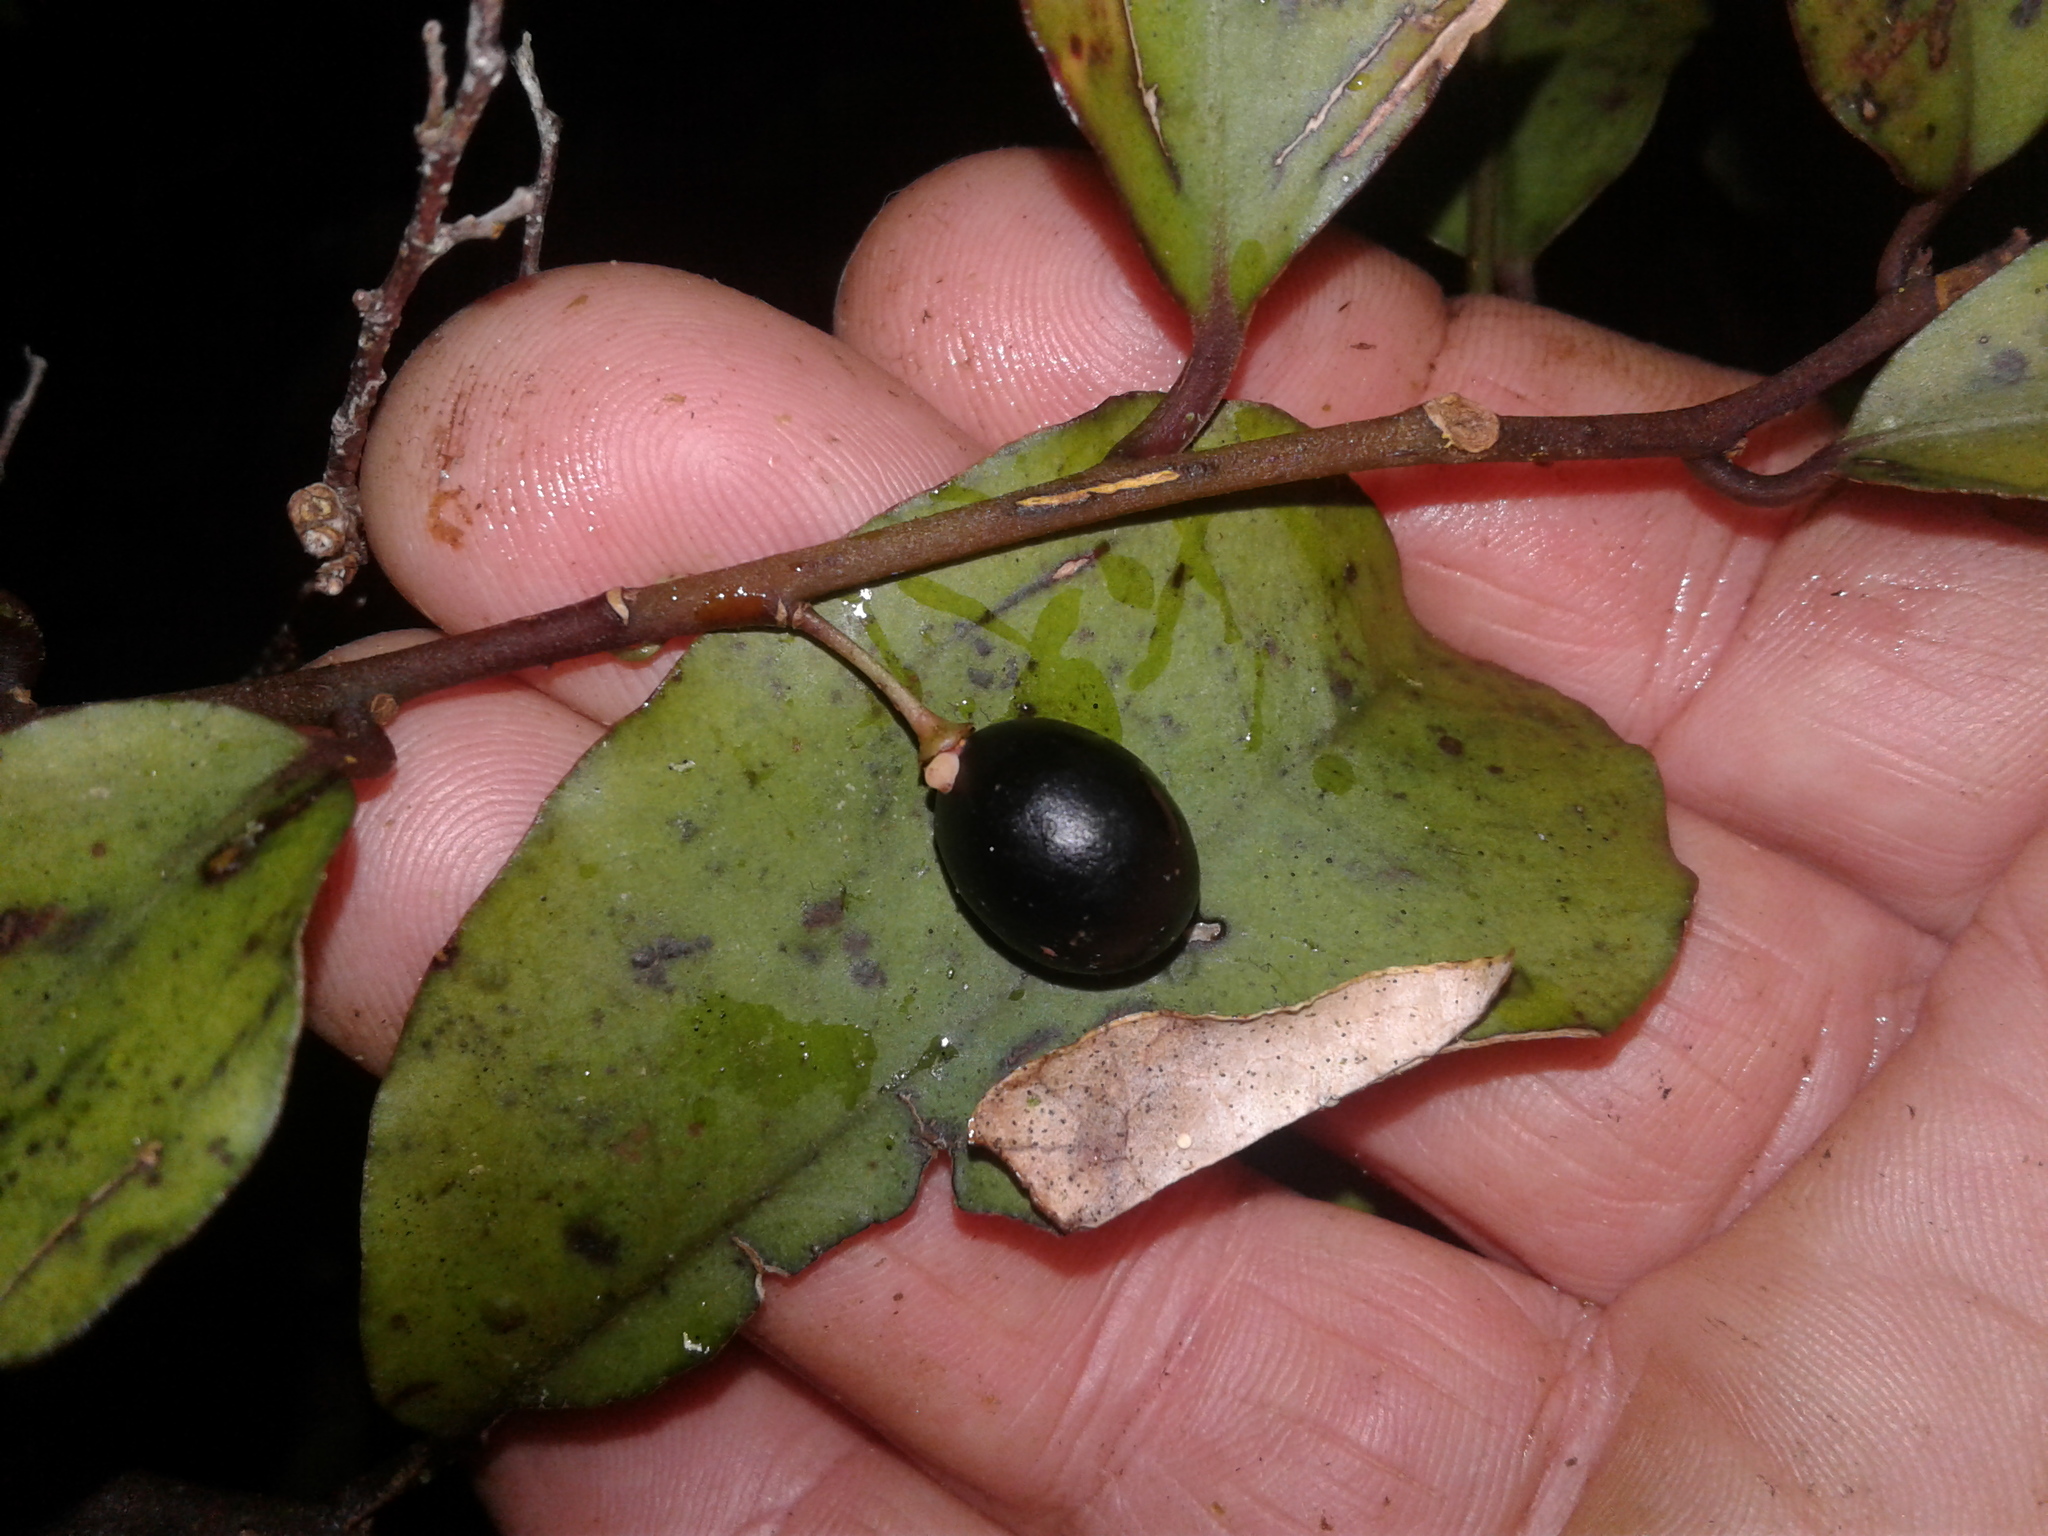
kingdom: Plantae
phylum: Tracheophyta
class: Magnoliopsida
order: Canellales
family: Winteraceae
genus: Pseudowintera
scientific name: Pseudowintera colorata
